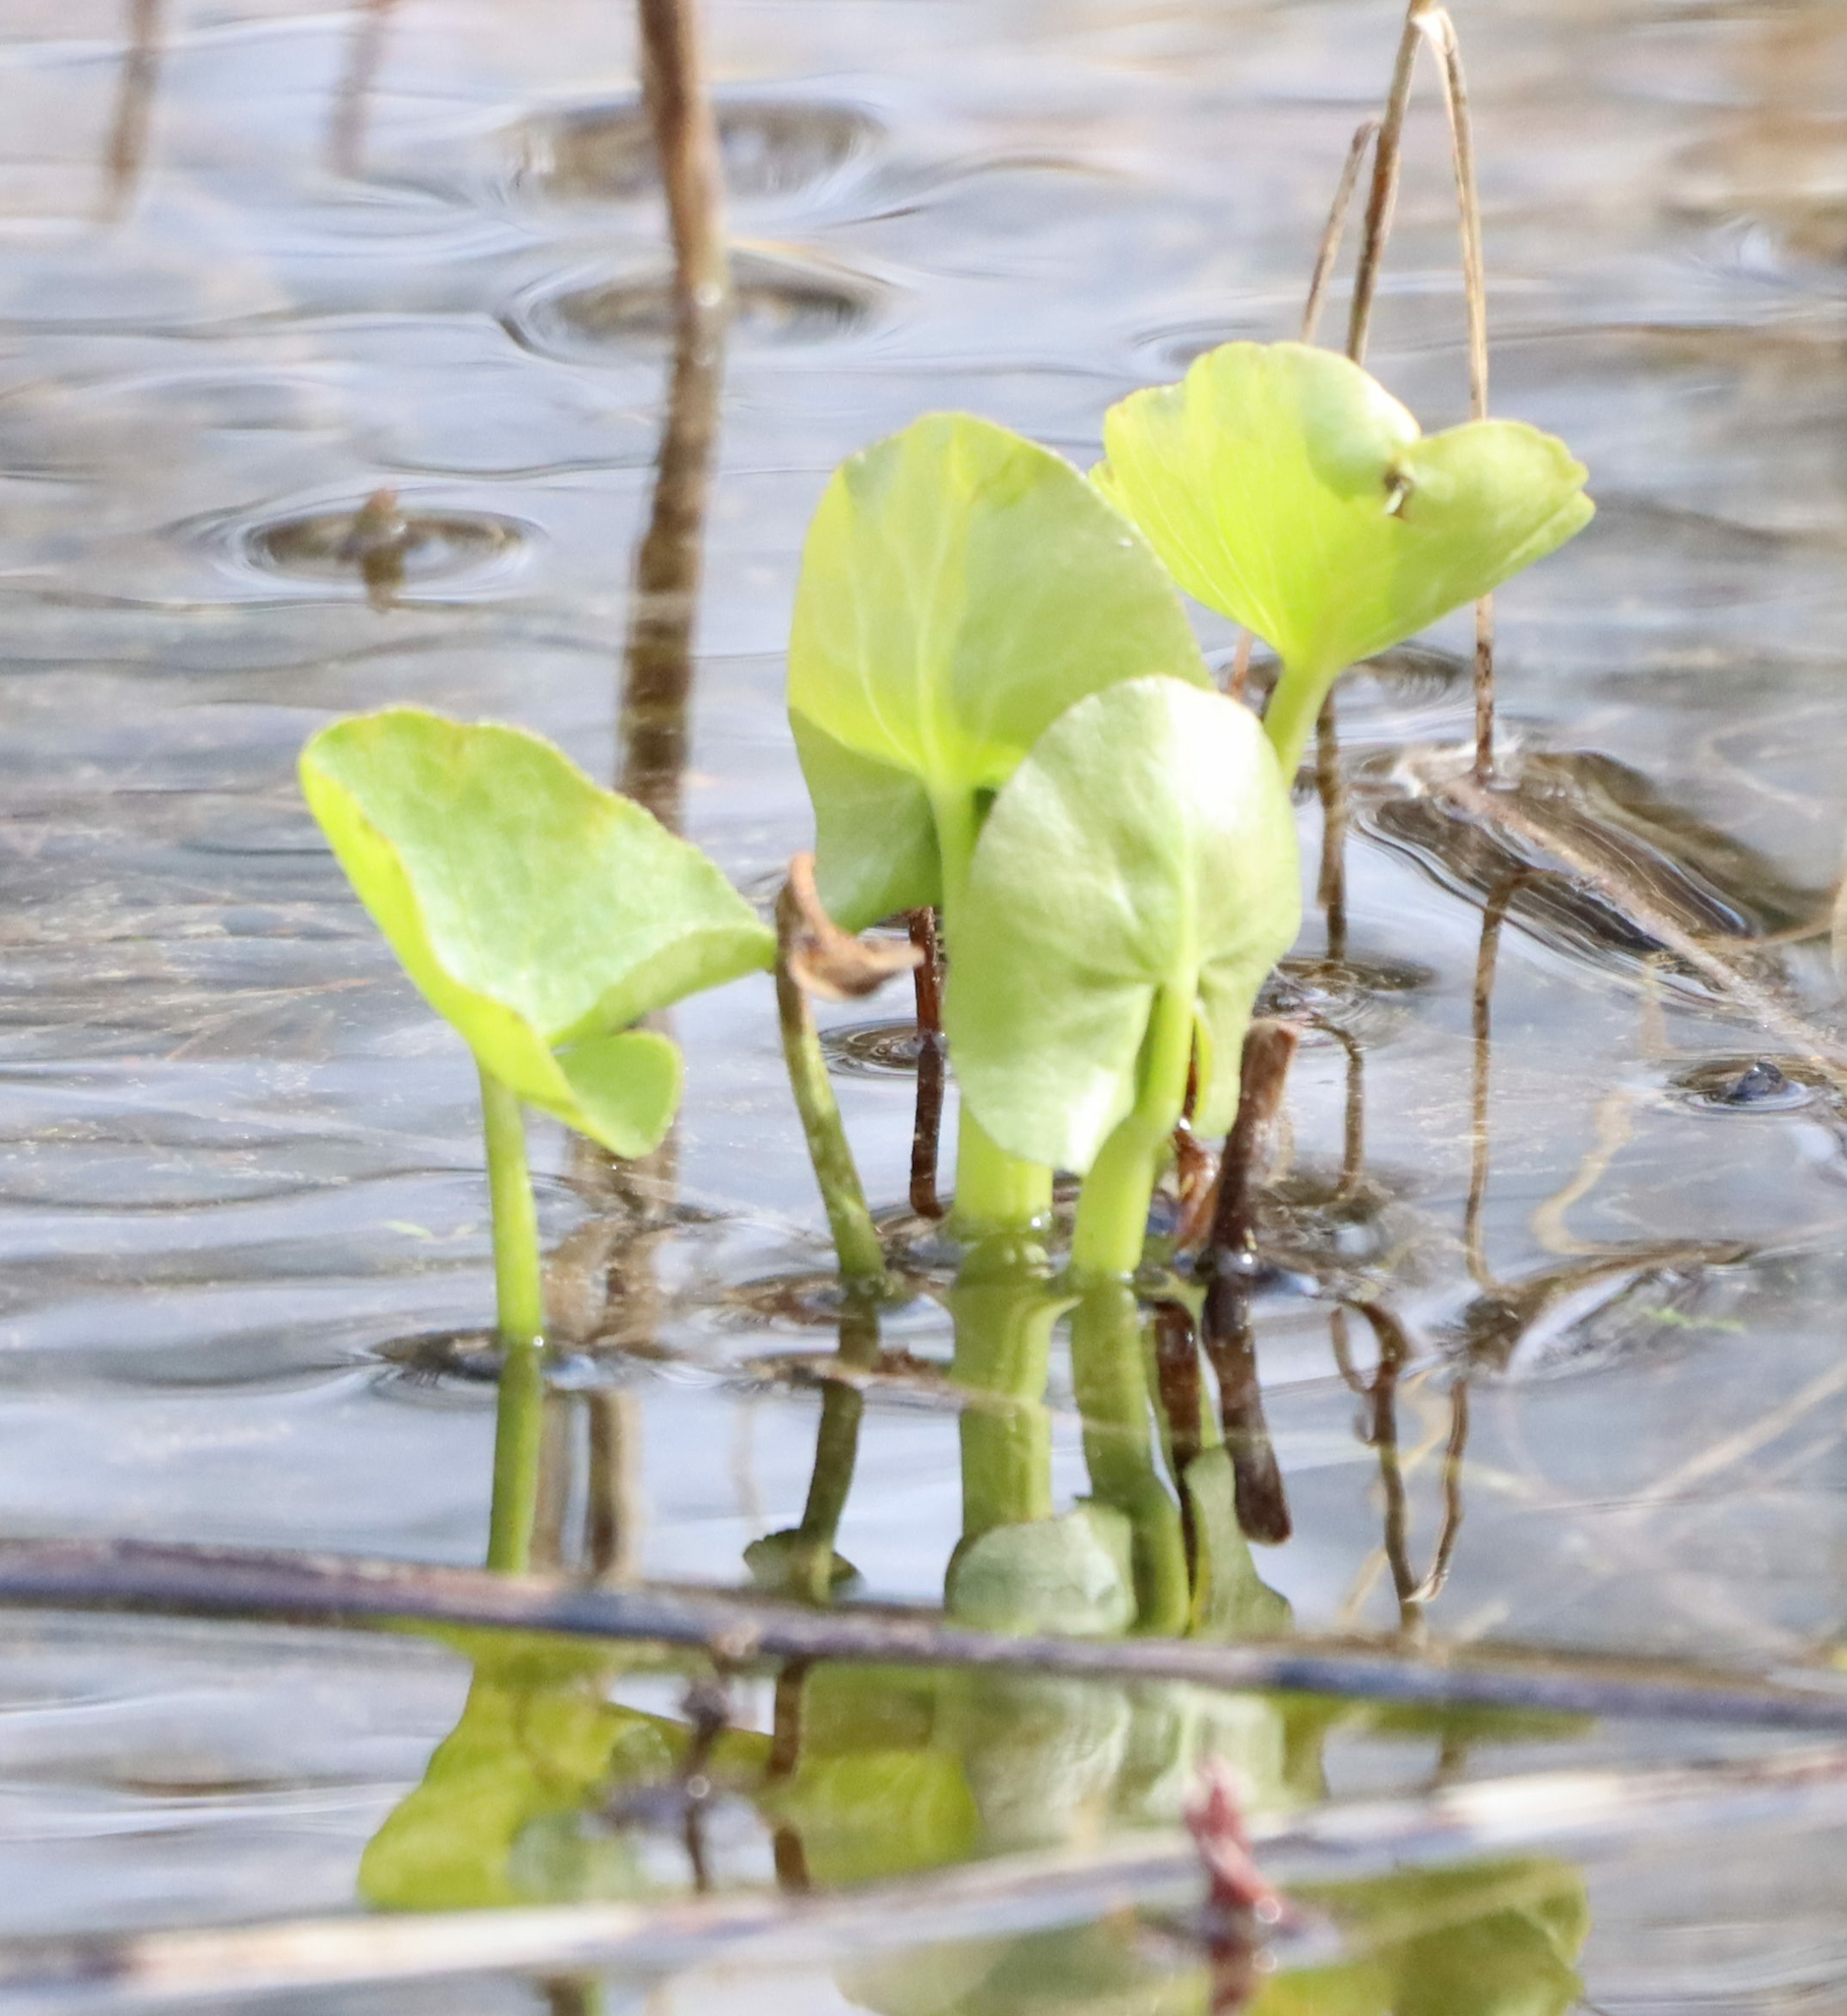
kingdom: Plantae
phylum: Tracheophyta
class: Magnoliopsida
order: Ranunculales
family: Ranunculaceae
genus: Caltha
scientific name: Caltha palustris
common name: Marsh marigold
